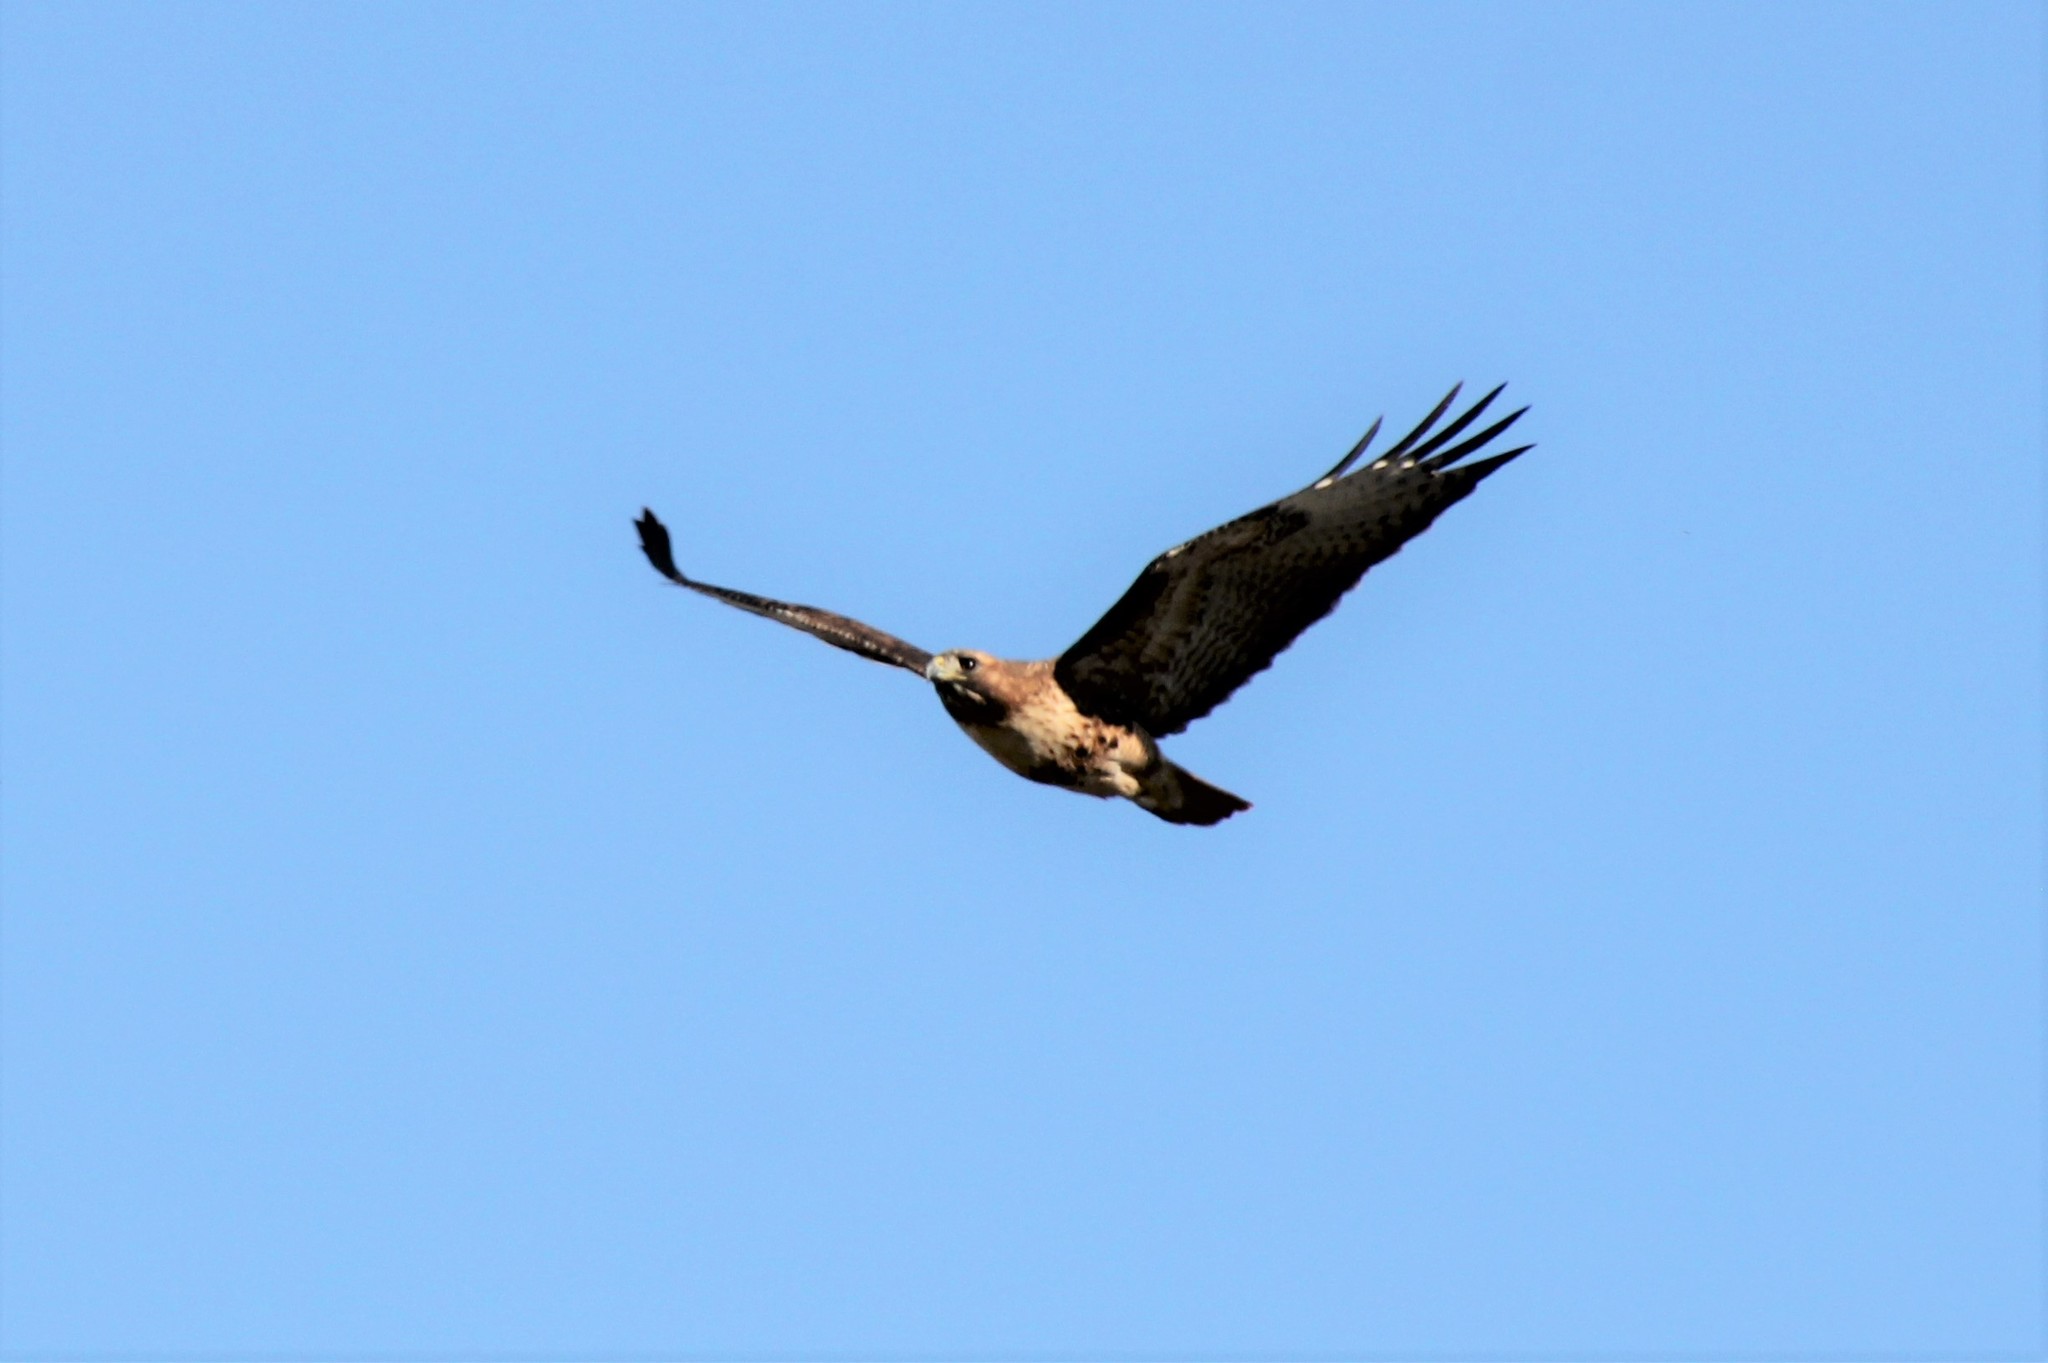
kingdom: Animalia
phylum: Chordata
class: Aves
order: Accipitriformes
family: Accipitridae
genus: Buteo
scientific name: Buteo jamaicensis
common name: Red-tailed hawk
